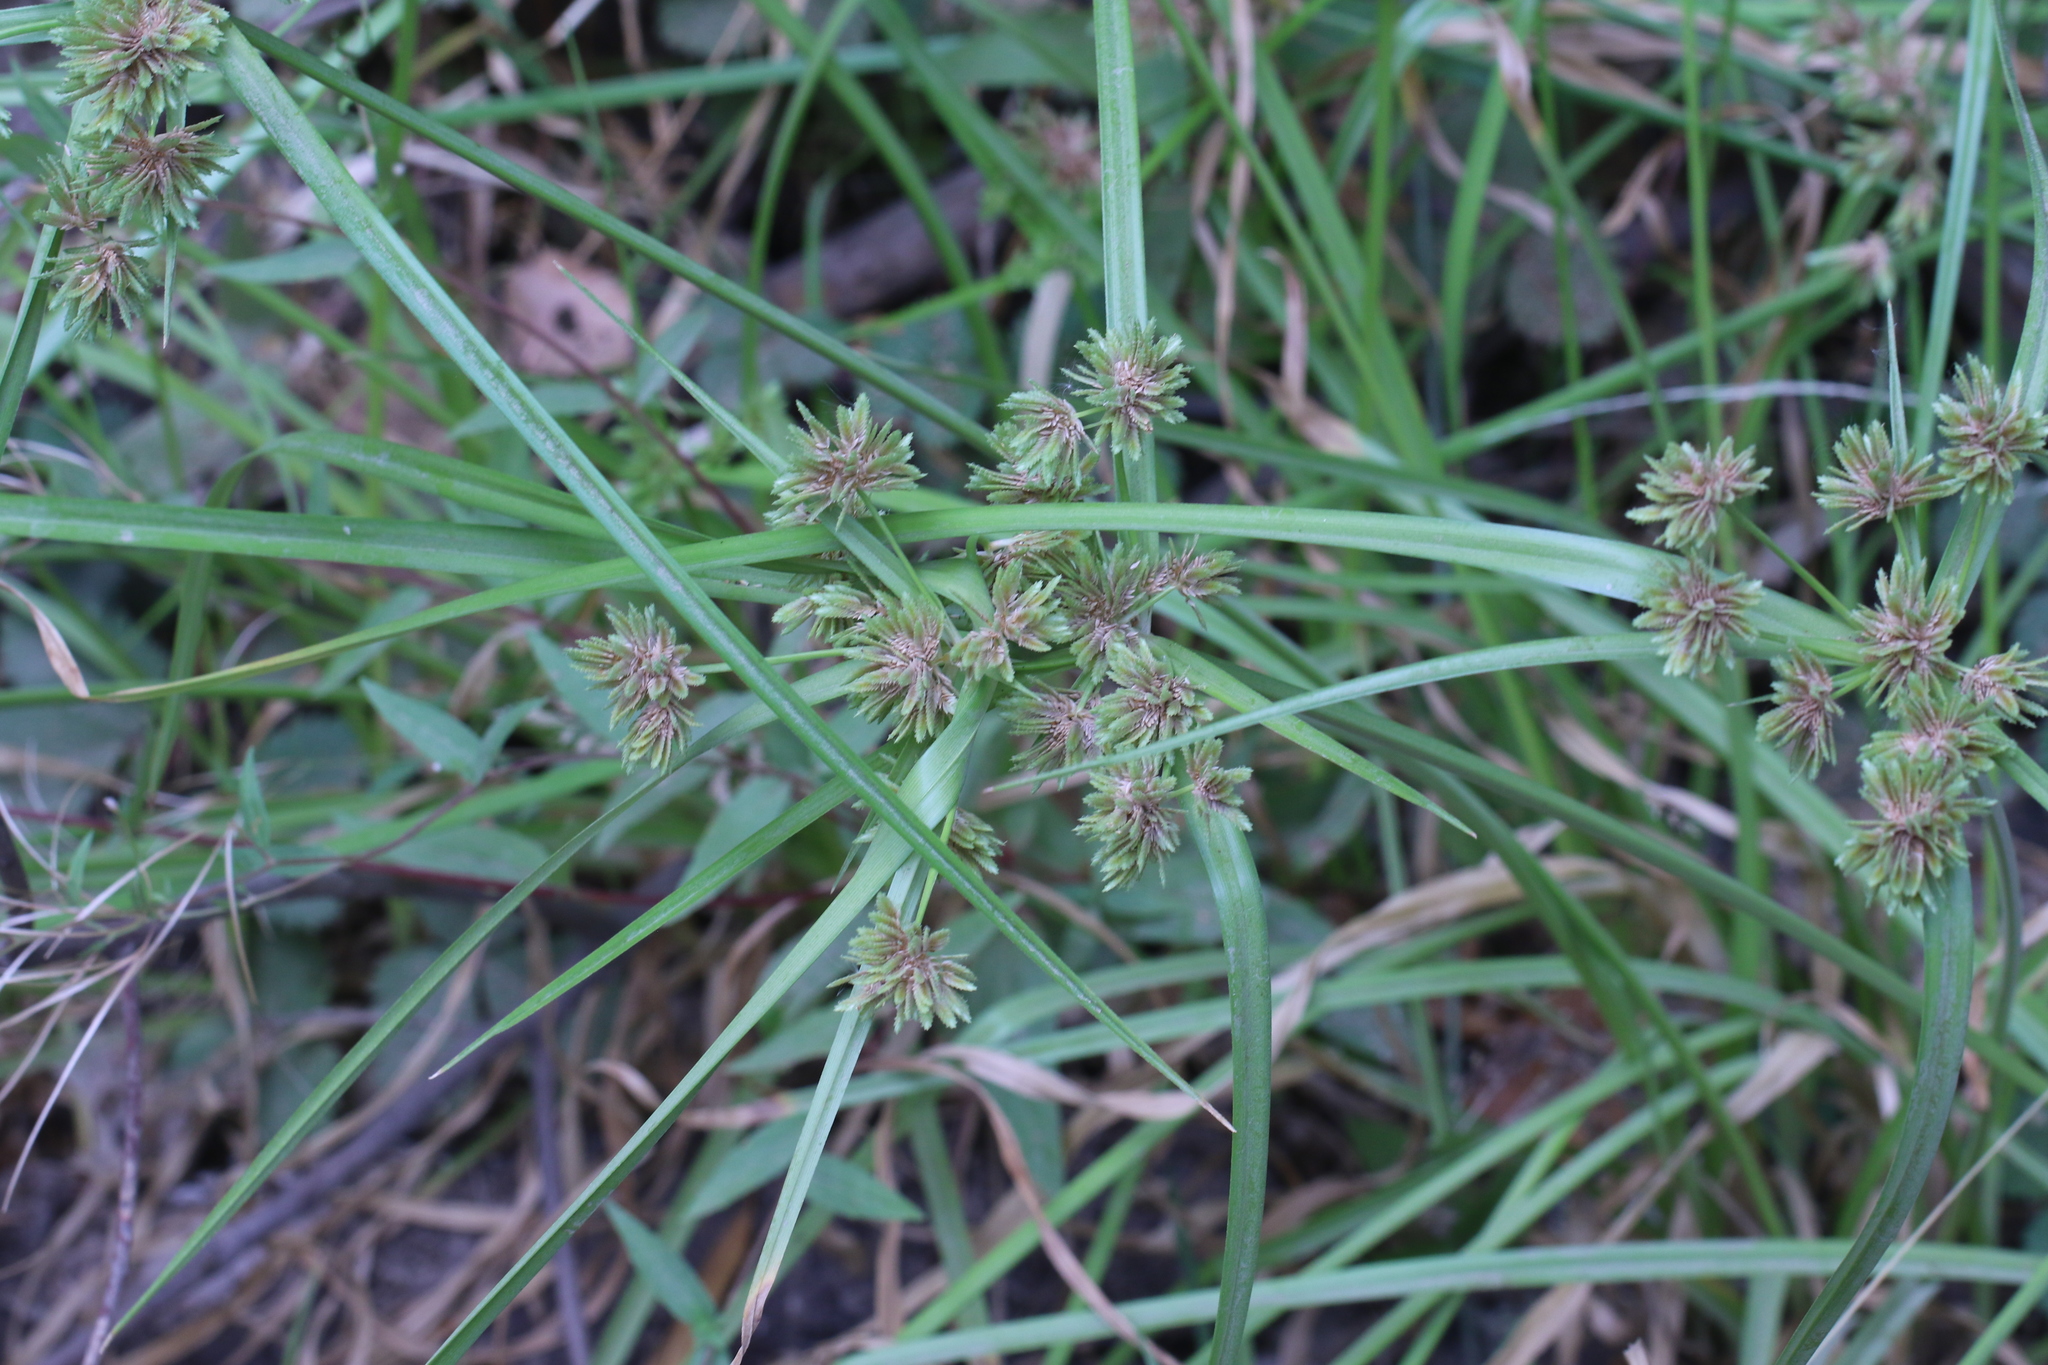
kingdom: Plantae
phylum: Tracheophyta
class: Liliopsida
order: Poales
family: Cyperaceae
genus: Cyperus
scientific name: Cyperus eragrostis
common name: Tall flatsedge
